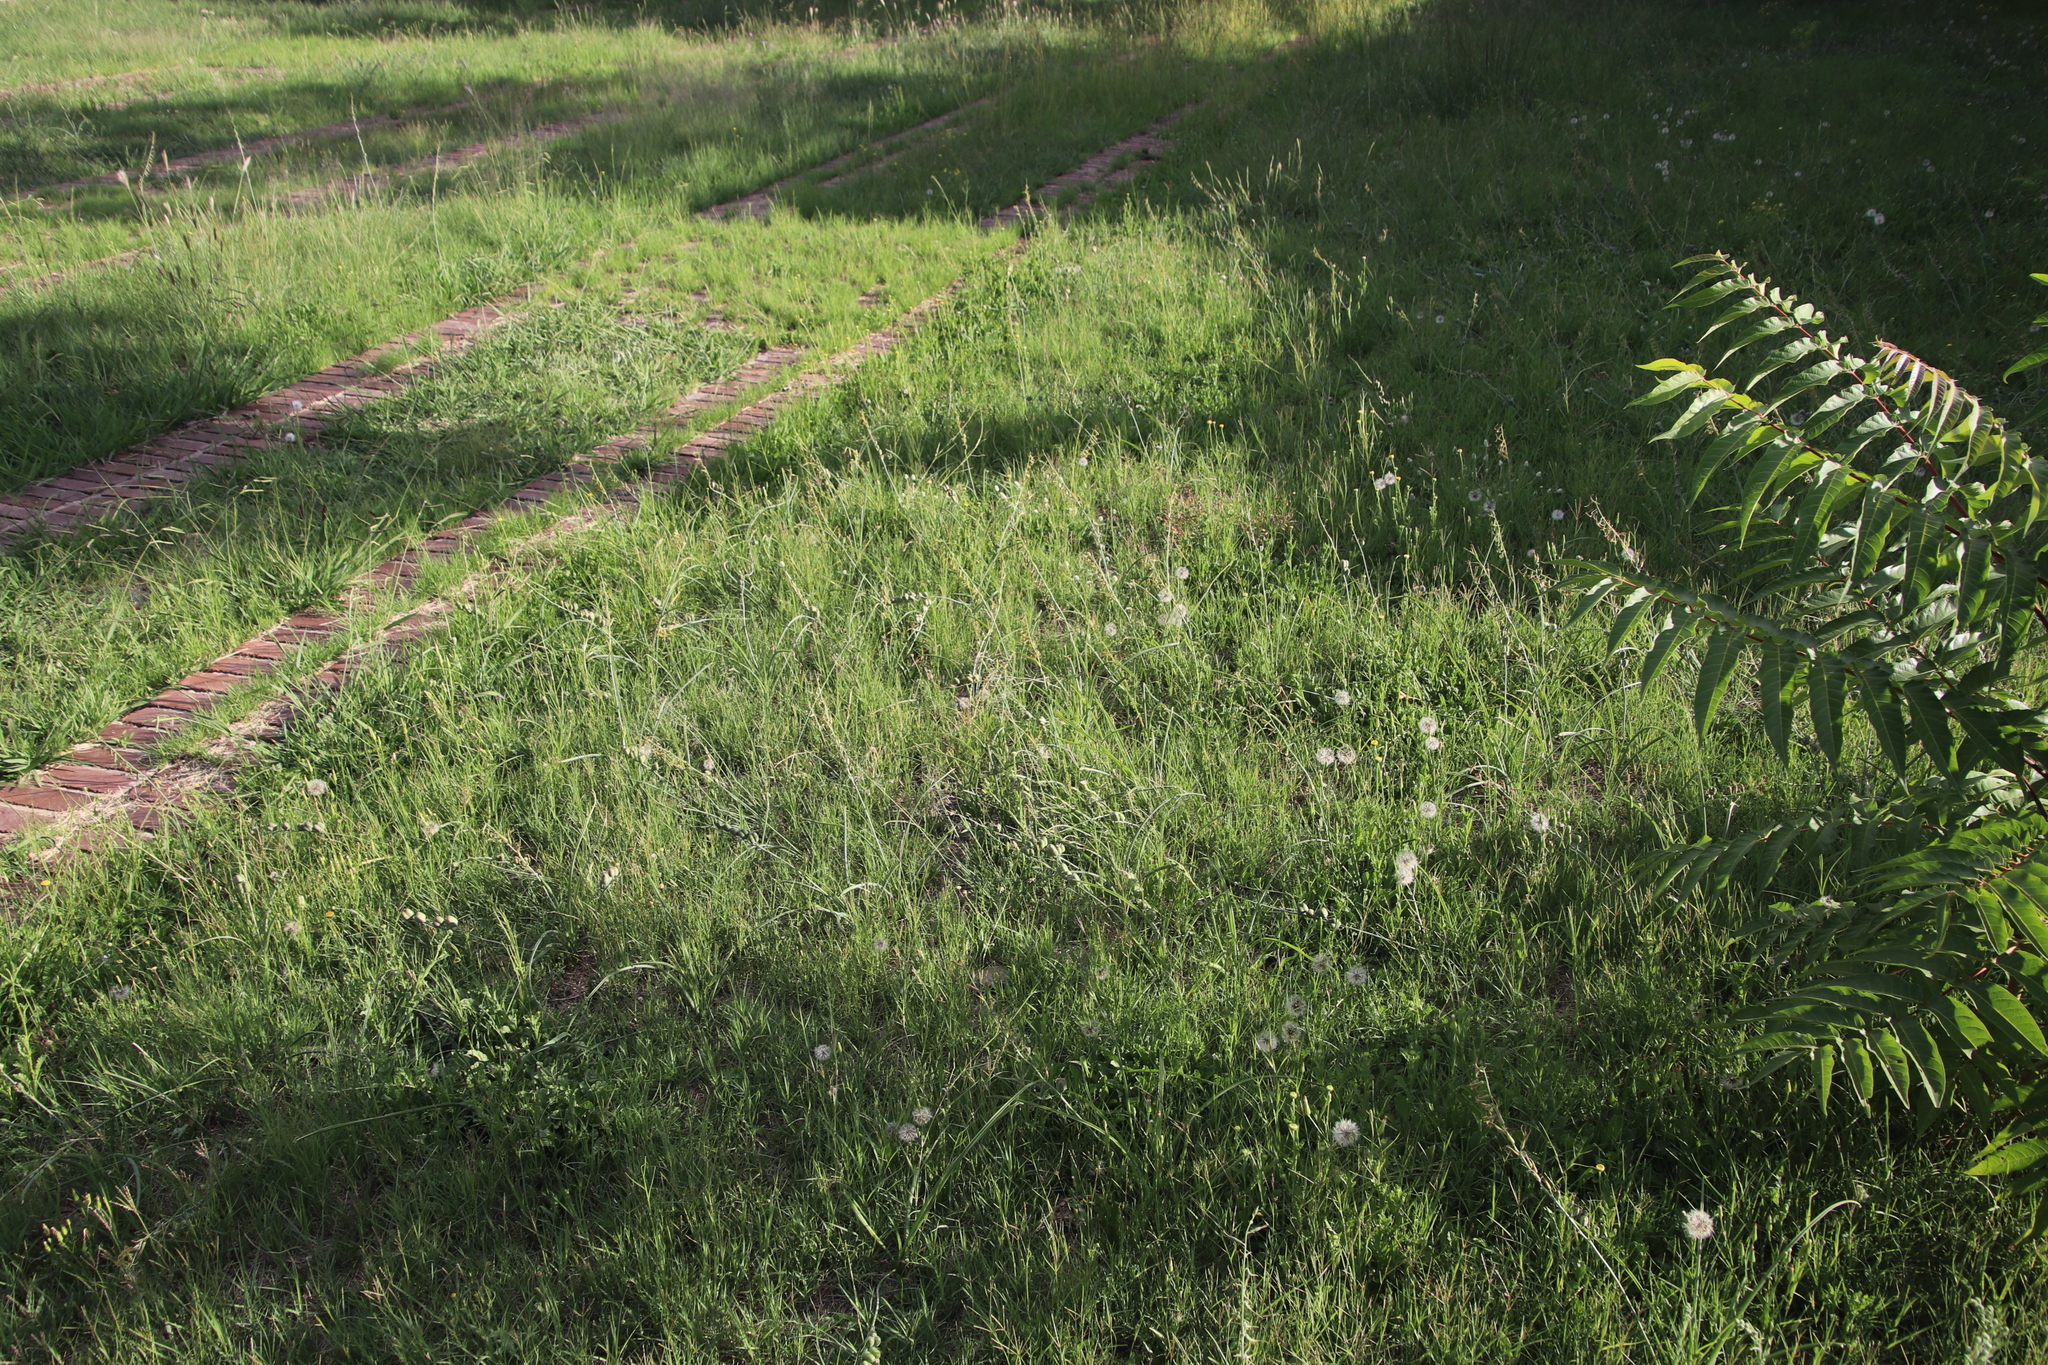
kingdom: Plantae
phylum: Tracheophyta
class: Liliopsida
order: Asparagales
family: Asparagaceae
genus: Dipcadi
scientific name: Dipcadi viride
